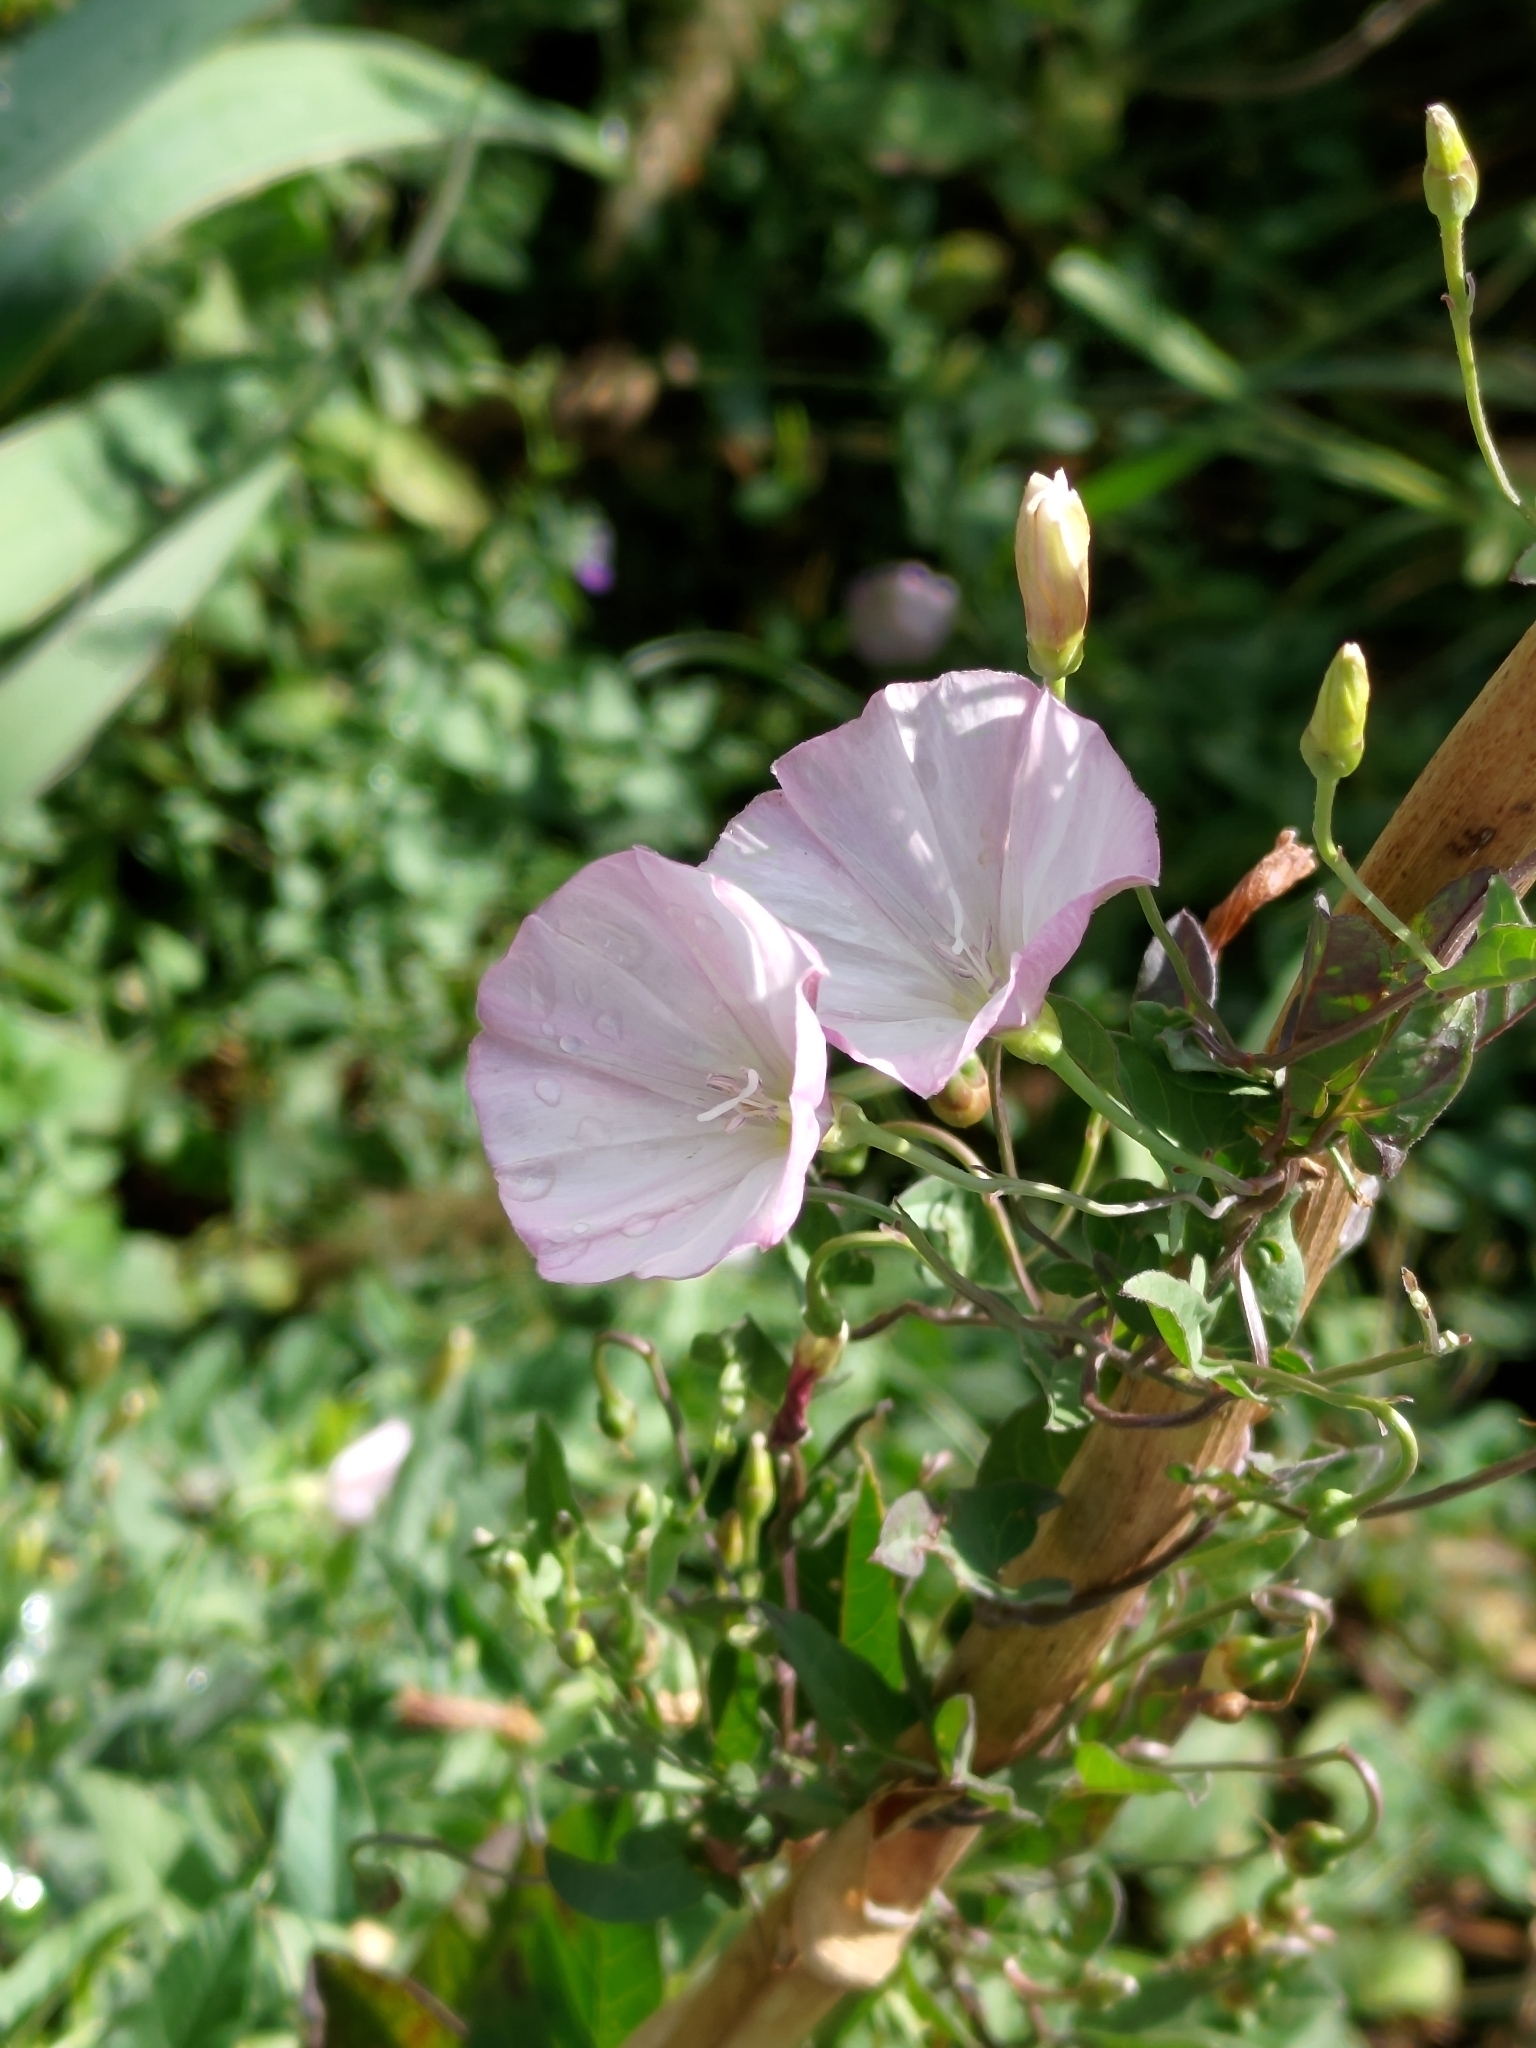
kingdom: Plantae
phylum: Tracheophyta
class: Magnoliopsida
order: Solanales
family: Convolvulaceae
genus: Convolvulus
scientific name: Convolvulus arvensis
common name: Field bindweed
